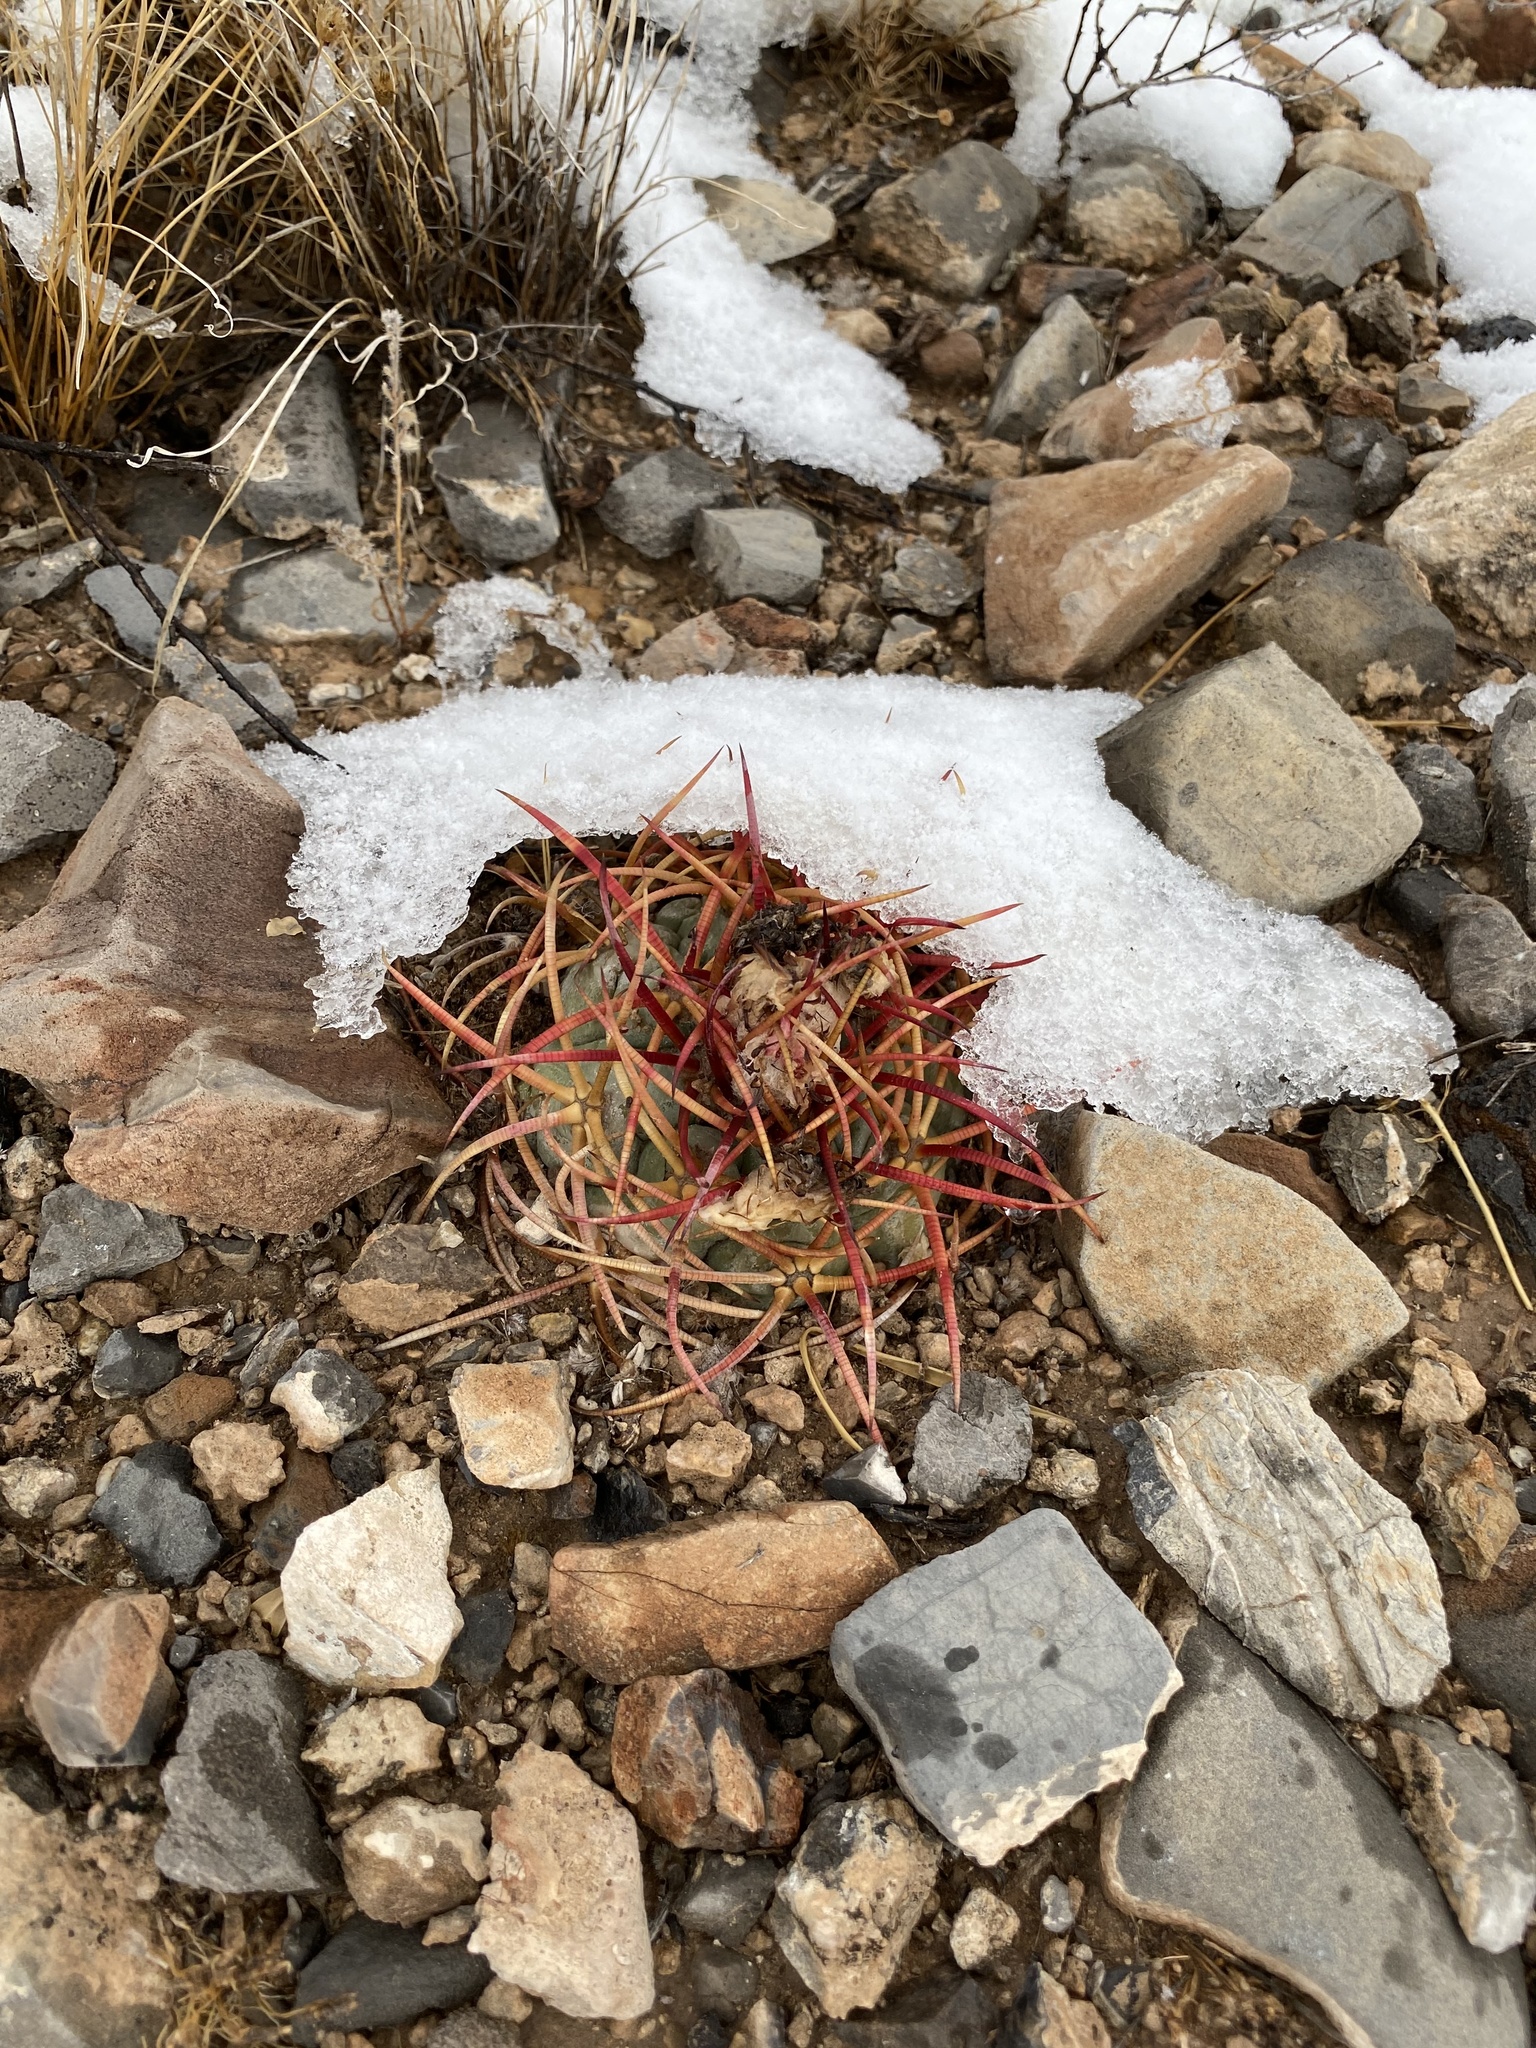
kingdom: Plantae
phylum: Tracheophyta
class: Magnoliopsida
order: Caryophyllales
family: Cactaceae
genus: Echinocactus
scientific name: Echinocactus horizonthalonius
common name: Devilshead
